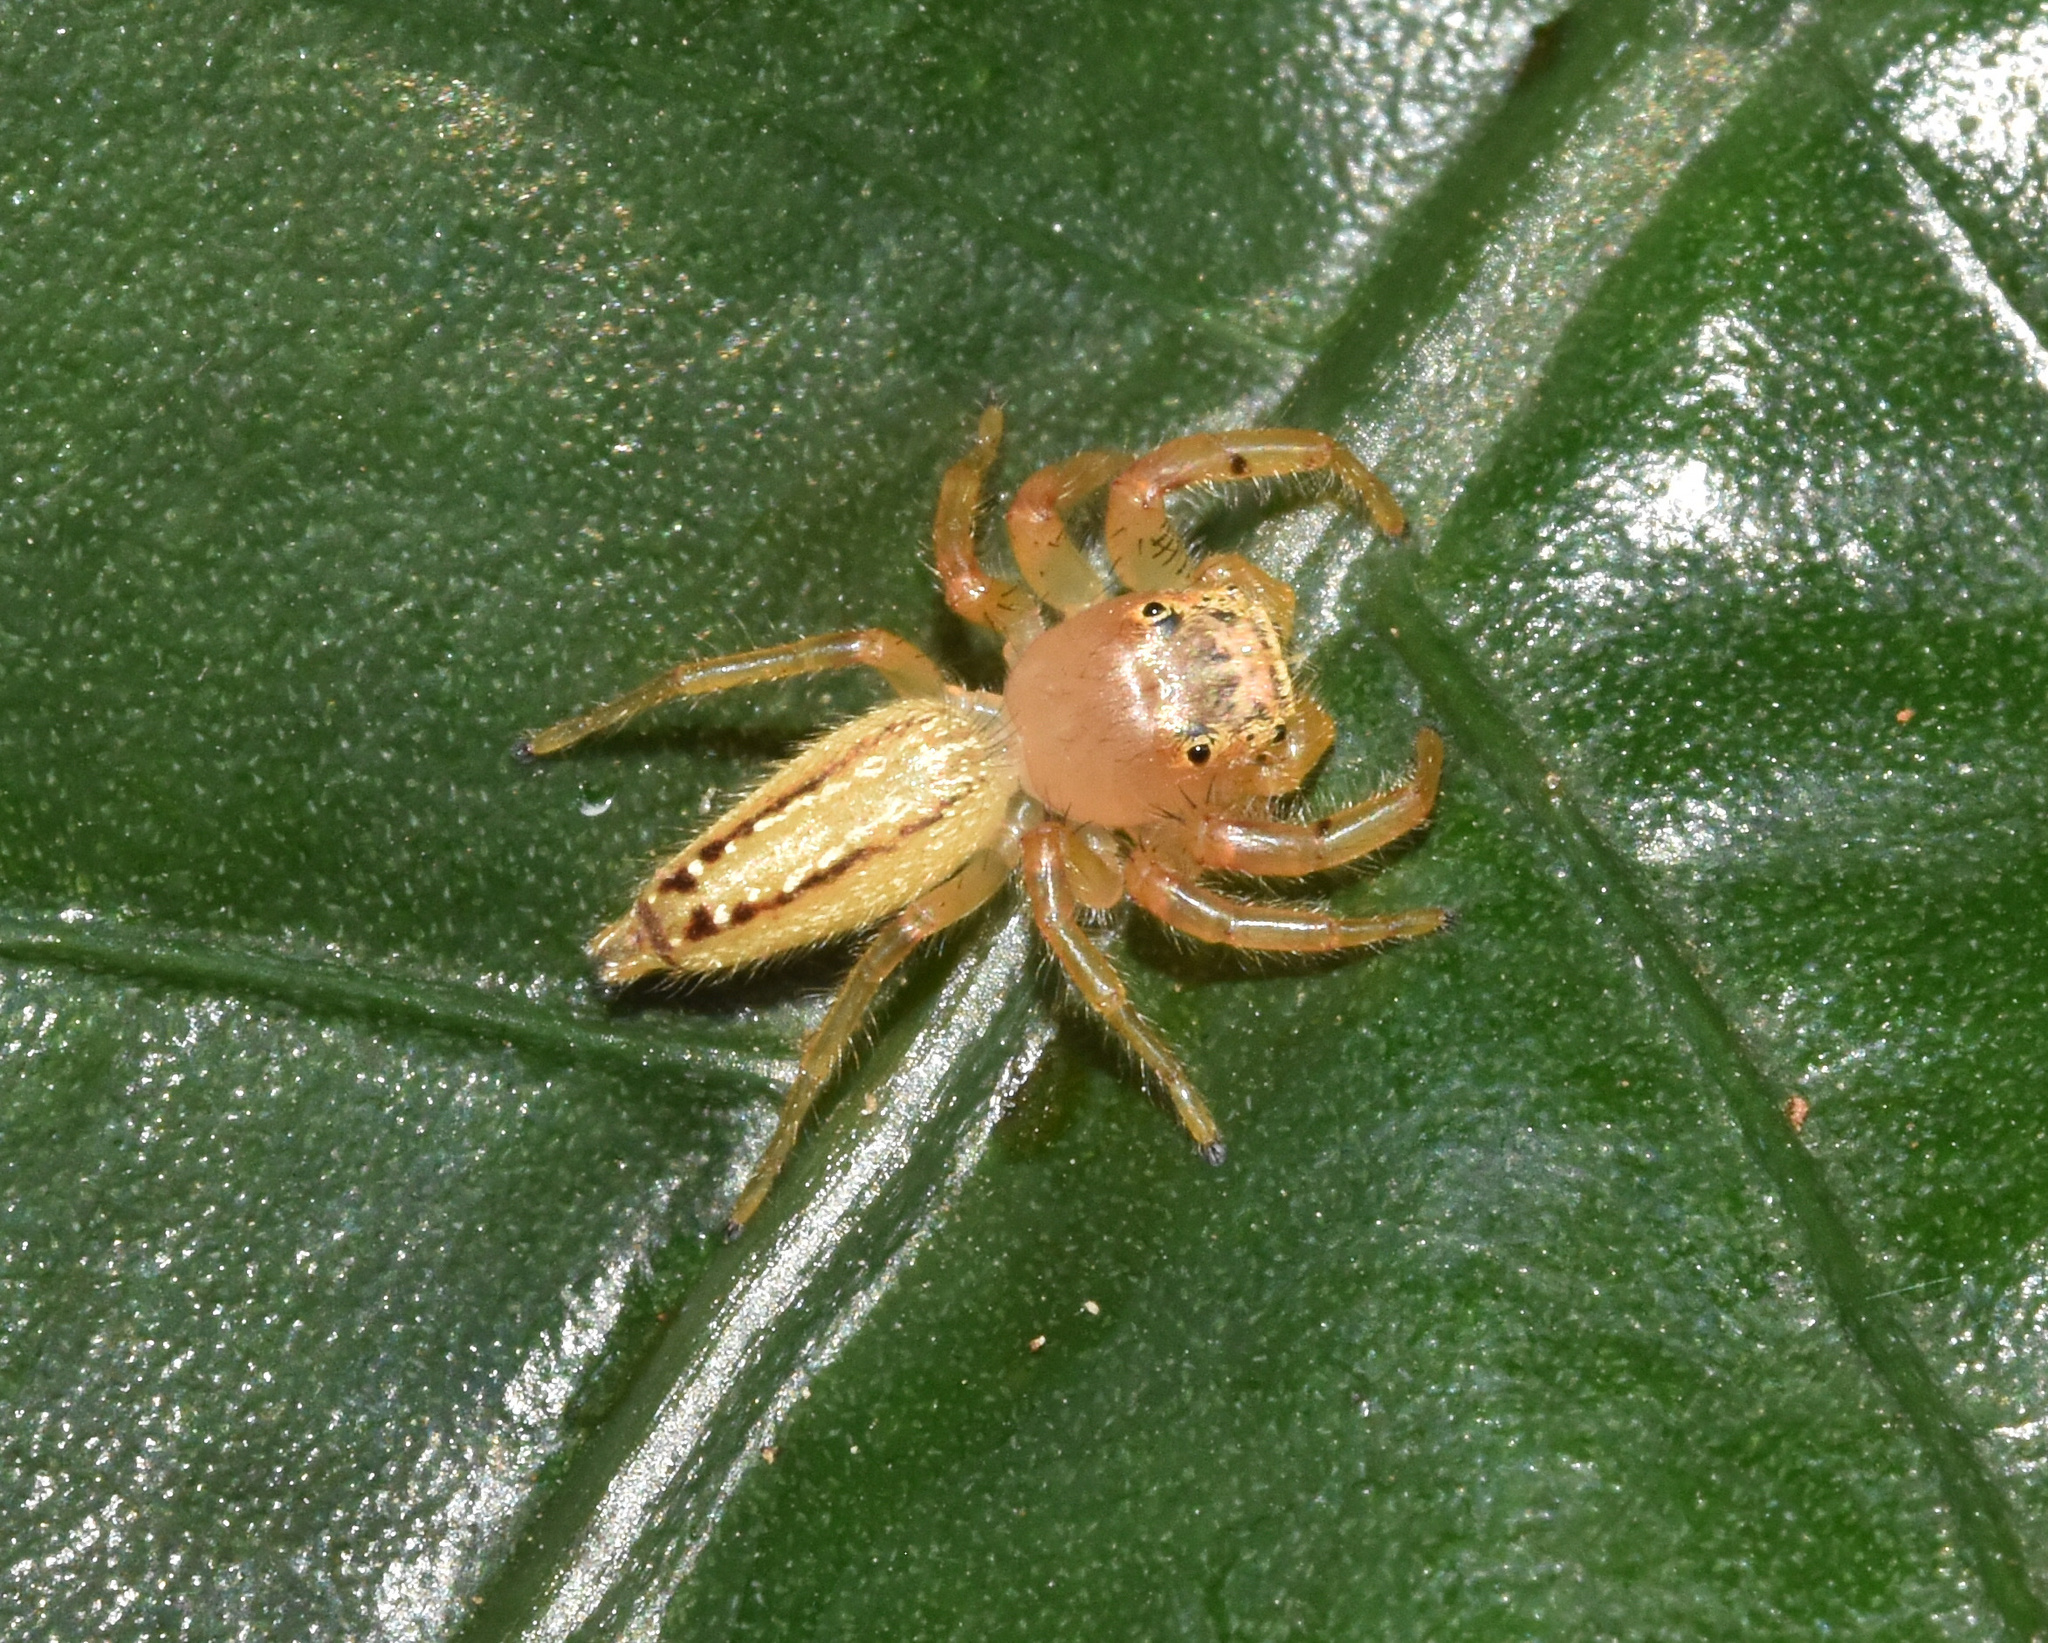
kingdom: Animalia
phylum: Arthropoda
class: Arachnida
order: Araneae
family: Salticidae
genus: Thyene
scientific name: Thyene ogdeni
